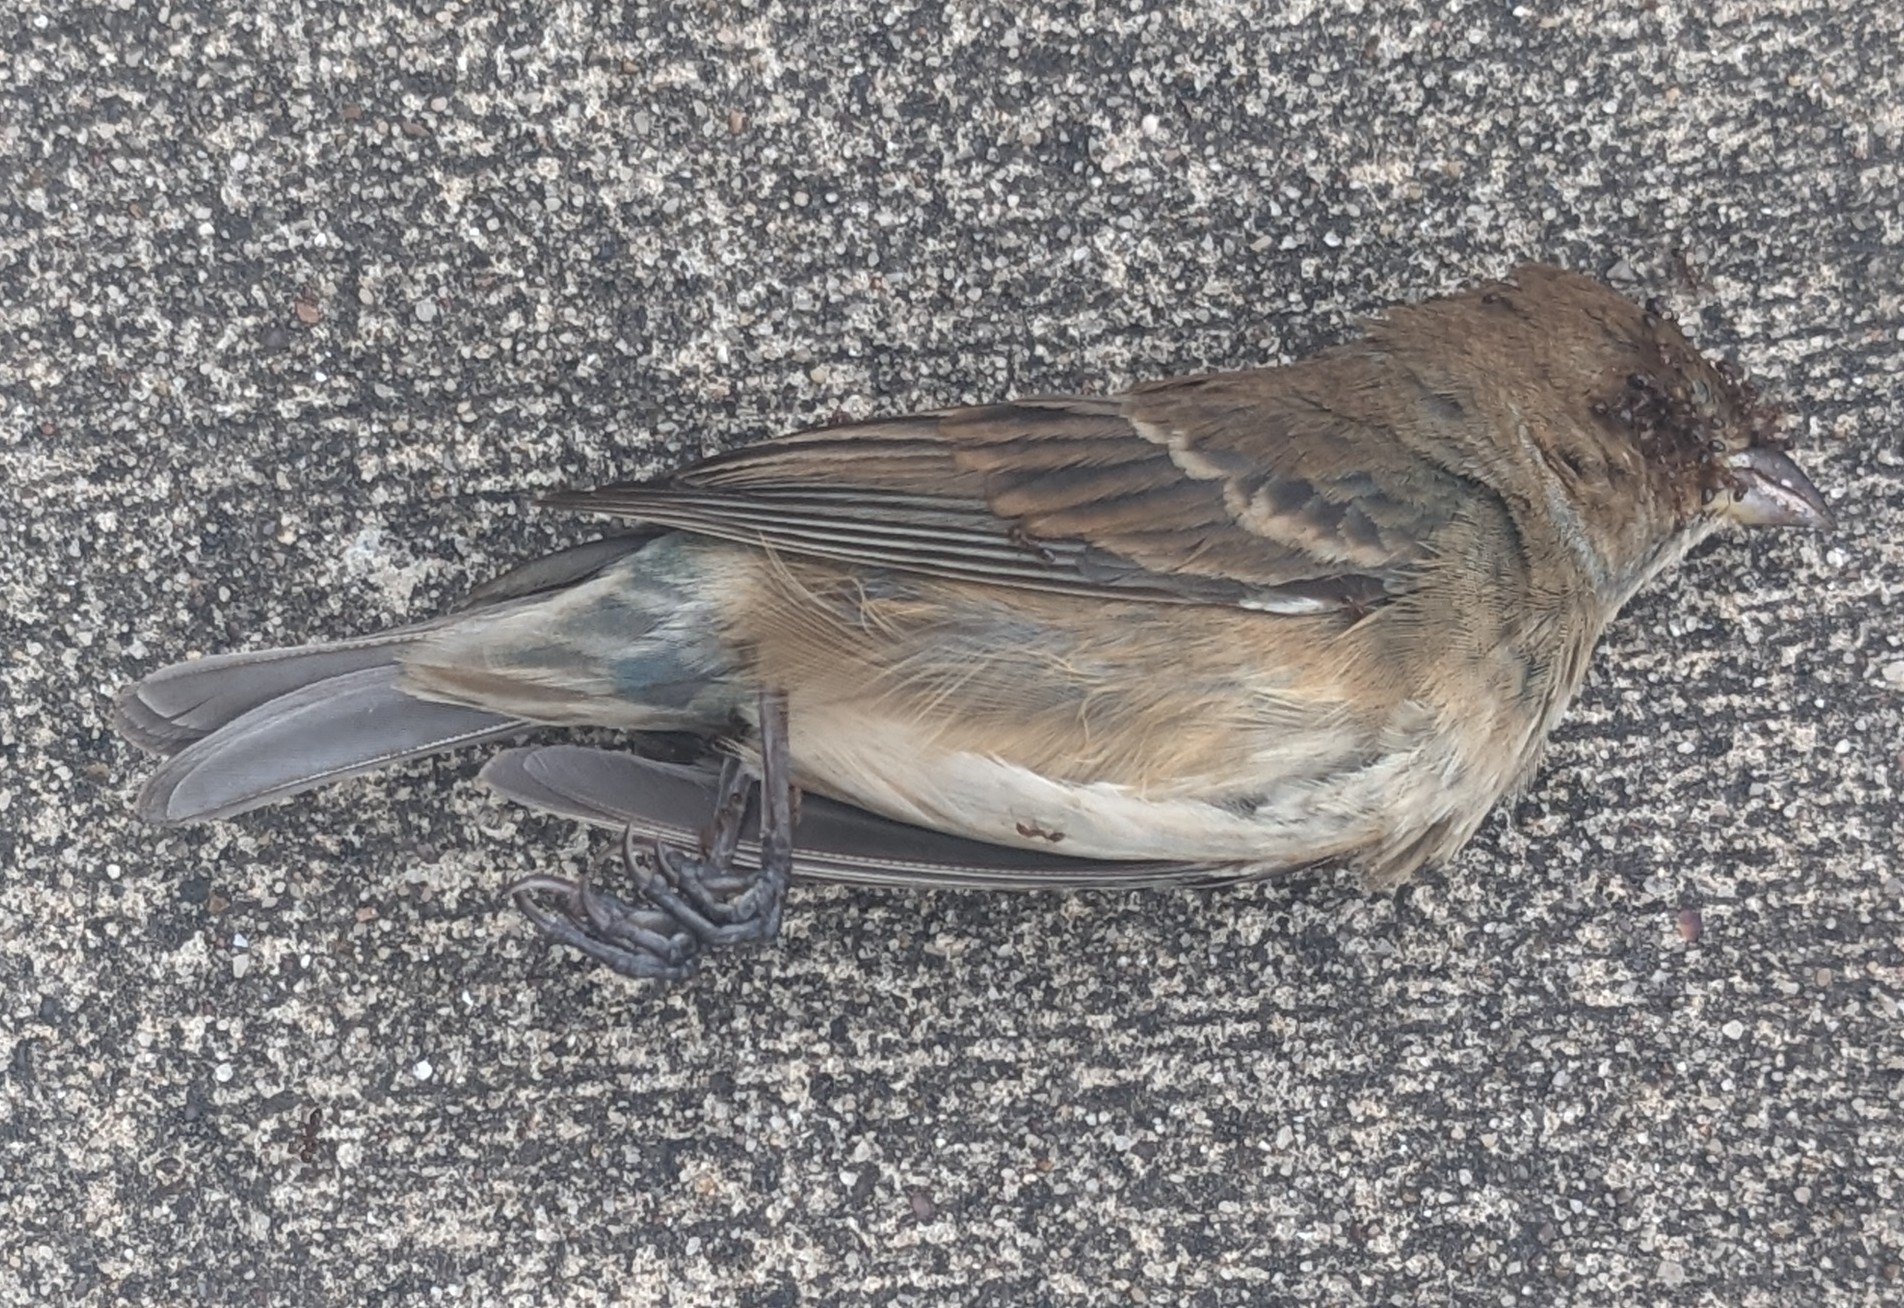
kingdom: Animalia
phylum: Chordata
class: Aves
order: Passeriformes
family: Cardinalidae
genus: Passerina
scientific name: Passerina cyanea
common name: Indigo bunting
